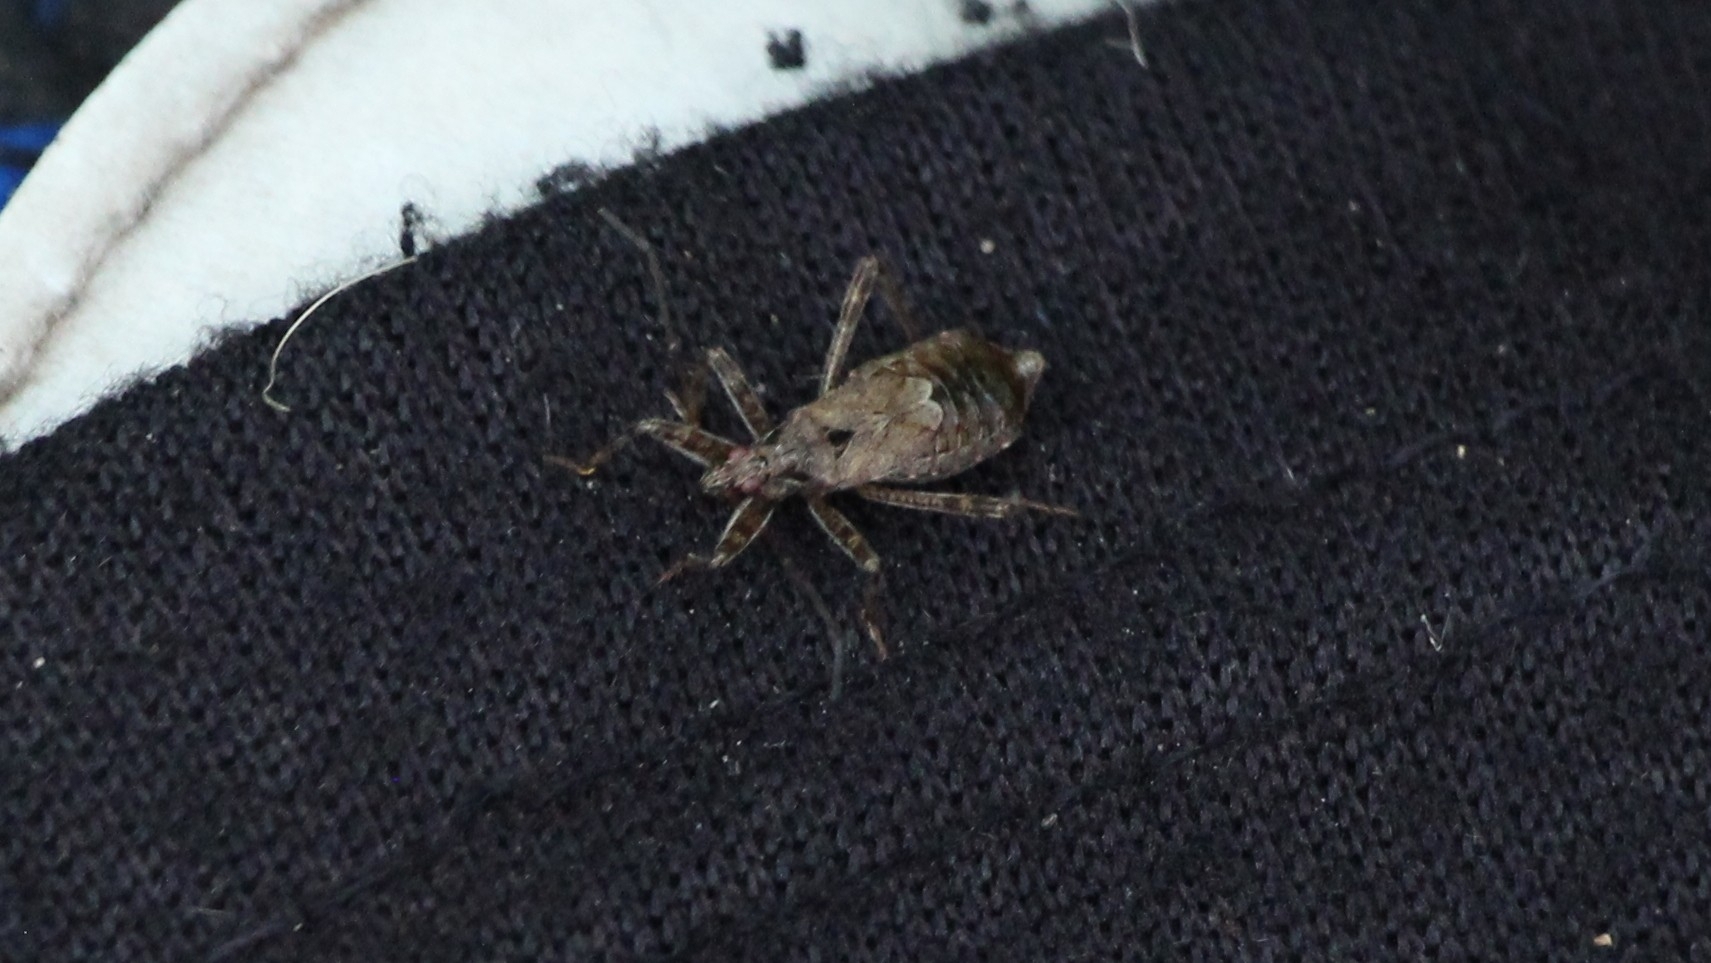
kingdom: Animalia
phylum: Arthropoda
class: Insecta
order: Hemiptera
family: Nabidae
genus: Himacerus
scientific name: Himacerus apterus
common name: Tree damsel bug
